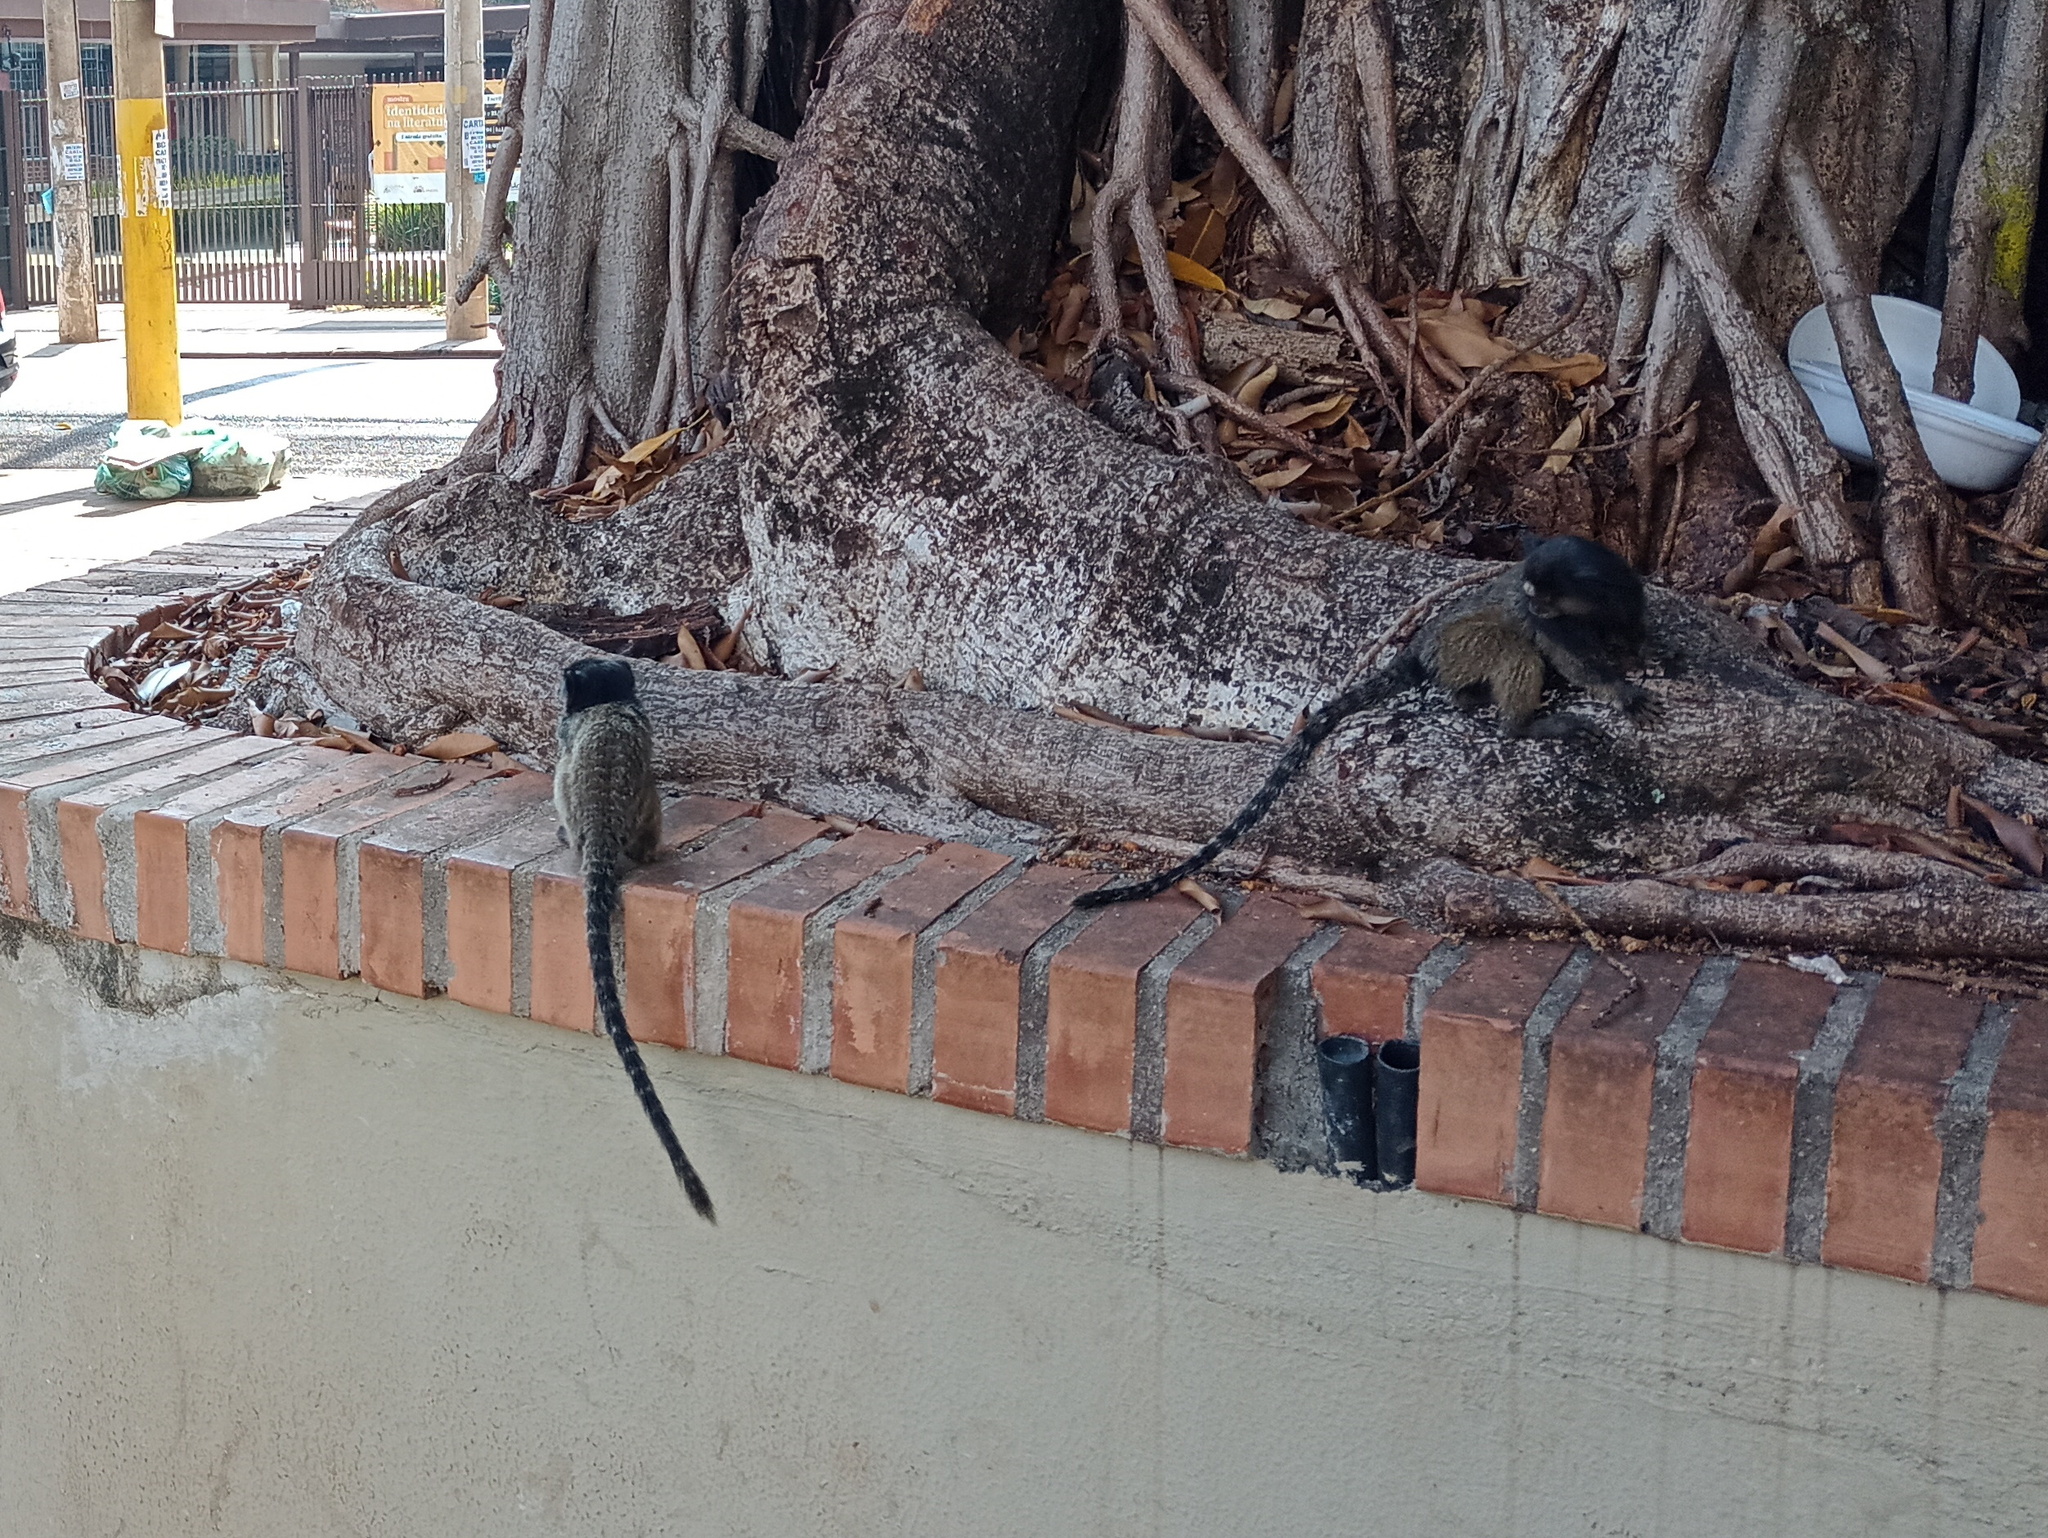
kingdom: Animalia
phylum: Chordata
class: Mammalia
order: Primates
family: Callitrichidae
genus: Callithrix
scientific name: Callithrix penicillata
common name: Black-tufted marmoset
